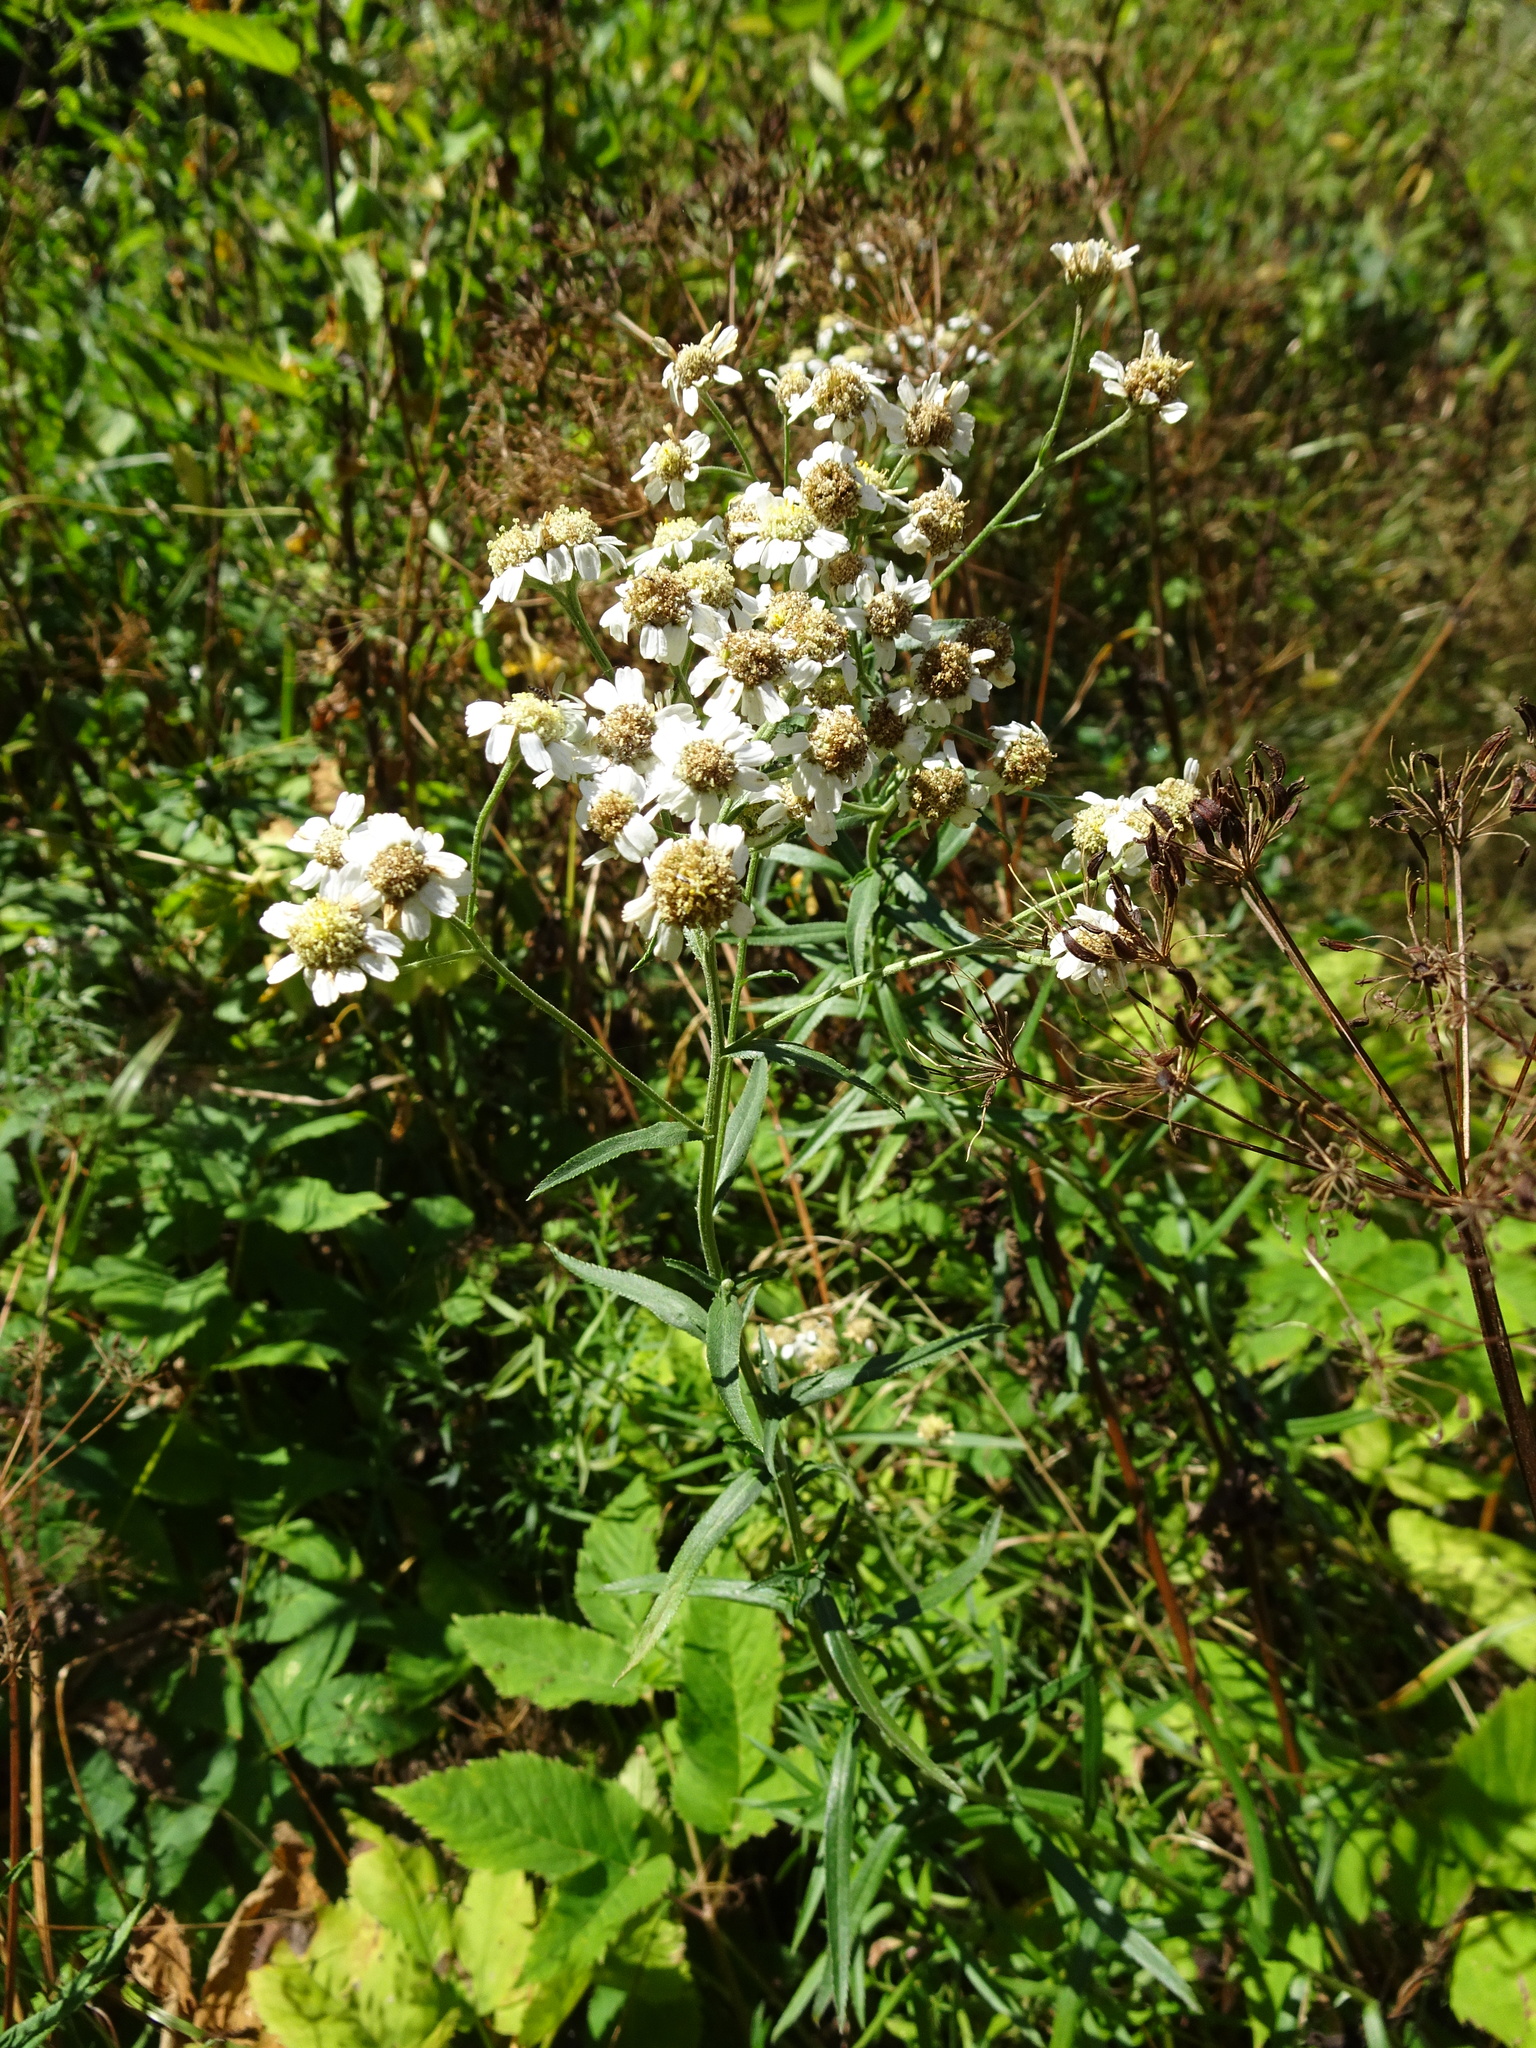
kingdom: Plantae
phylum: Tracheophyta
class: Magnoliopsida
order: Asterales
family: Asteraceae
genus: Achillea
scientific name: Achillea ptarmica
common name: Sneezeweed
